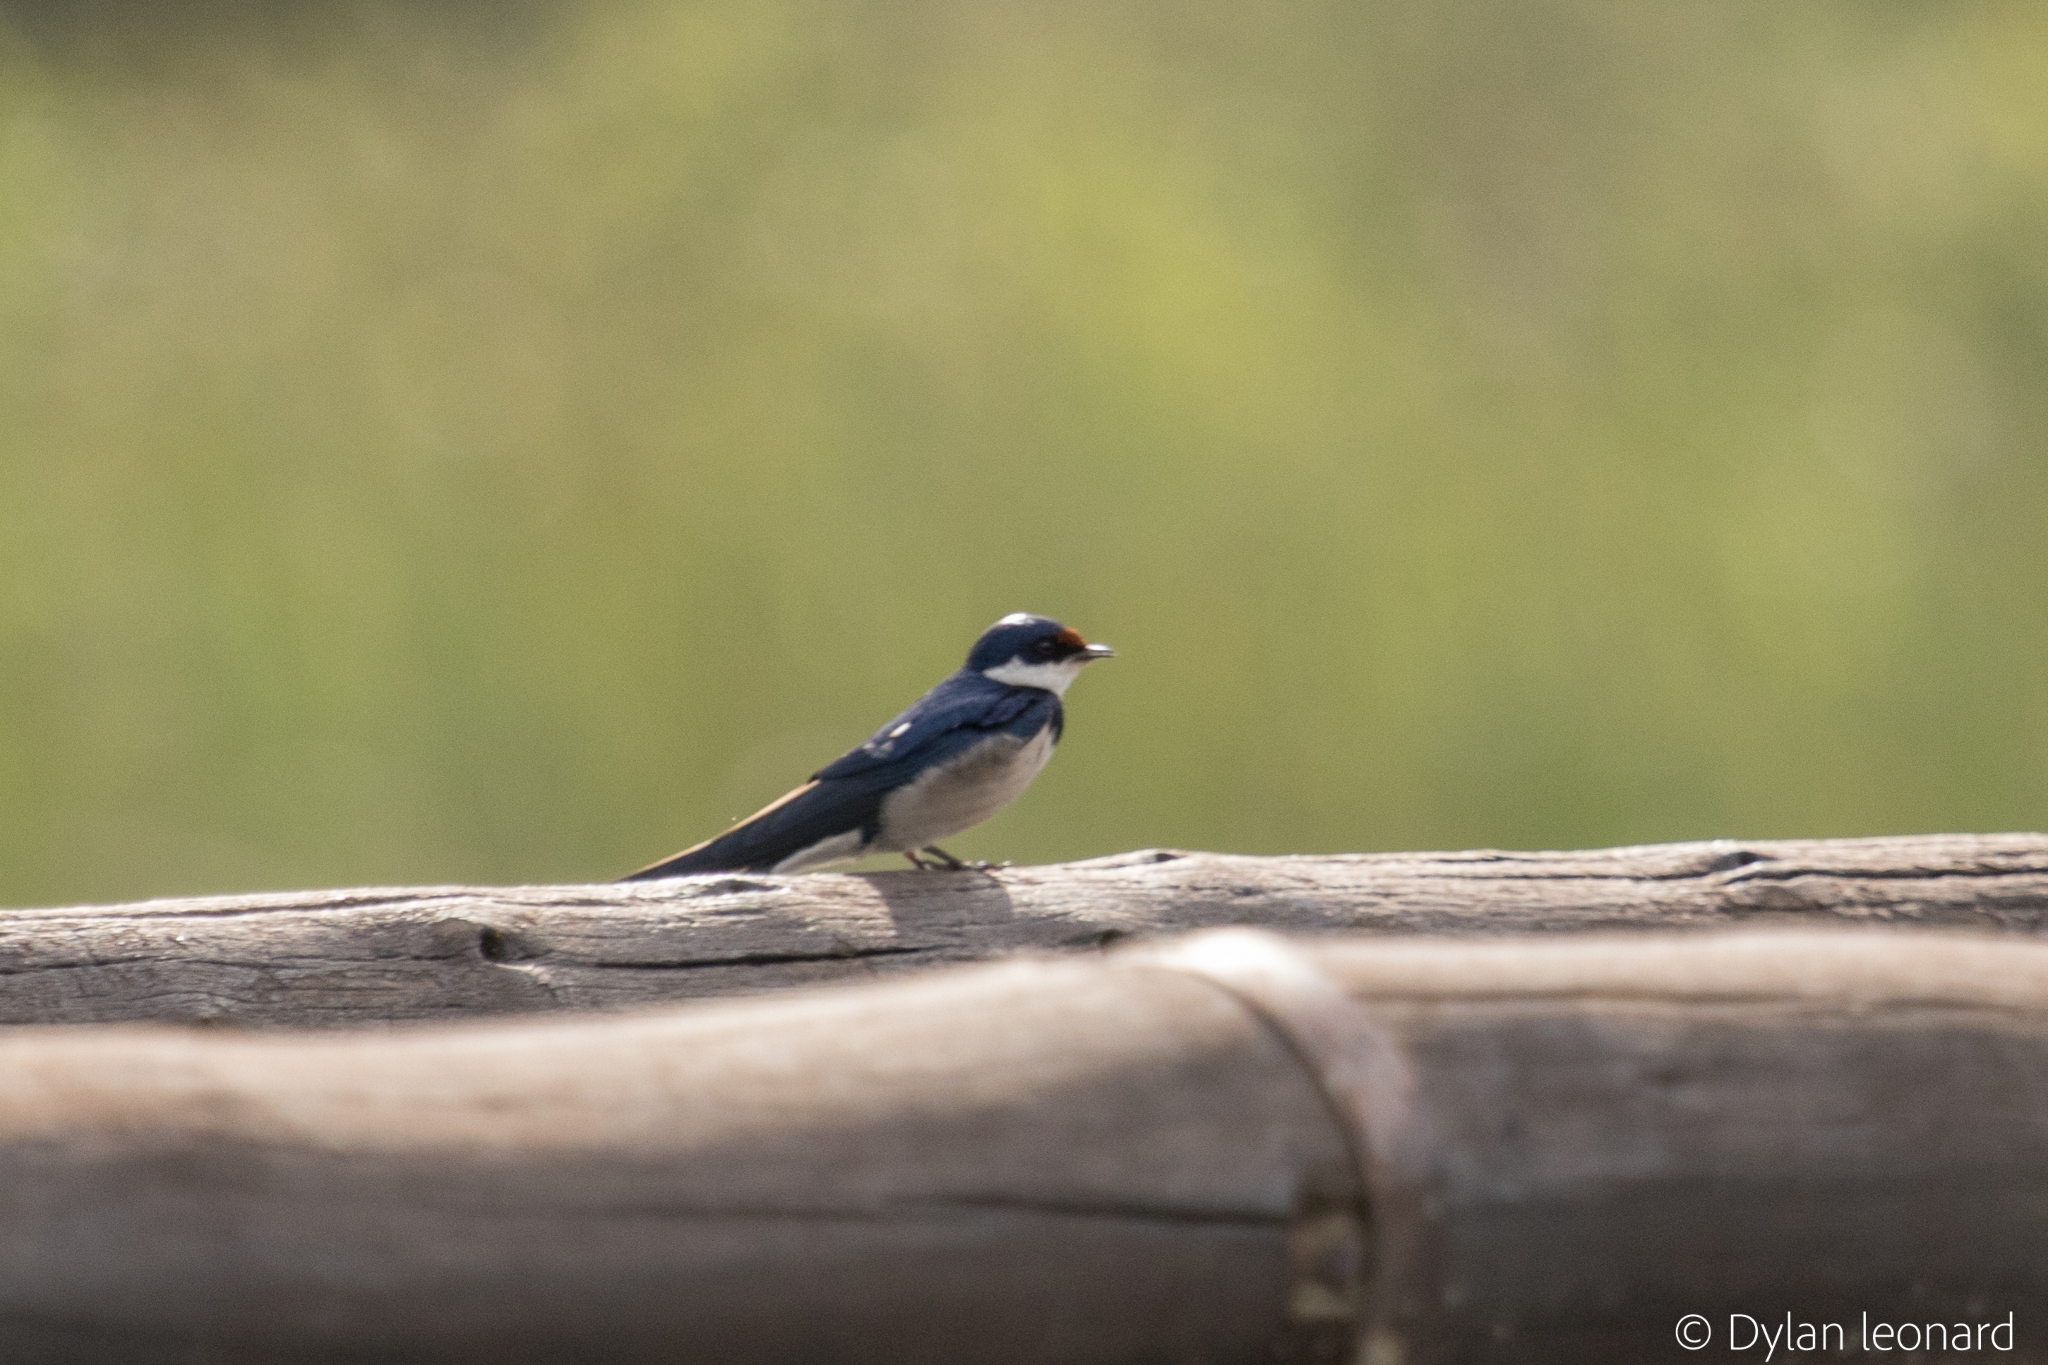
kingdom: Animalia
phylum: Chordata
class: Aves
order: Passeriformes
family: Hirundinidae
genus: Hirundo
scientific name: Hirundo albigularis
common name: White-throated swallow
